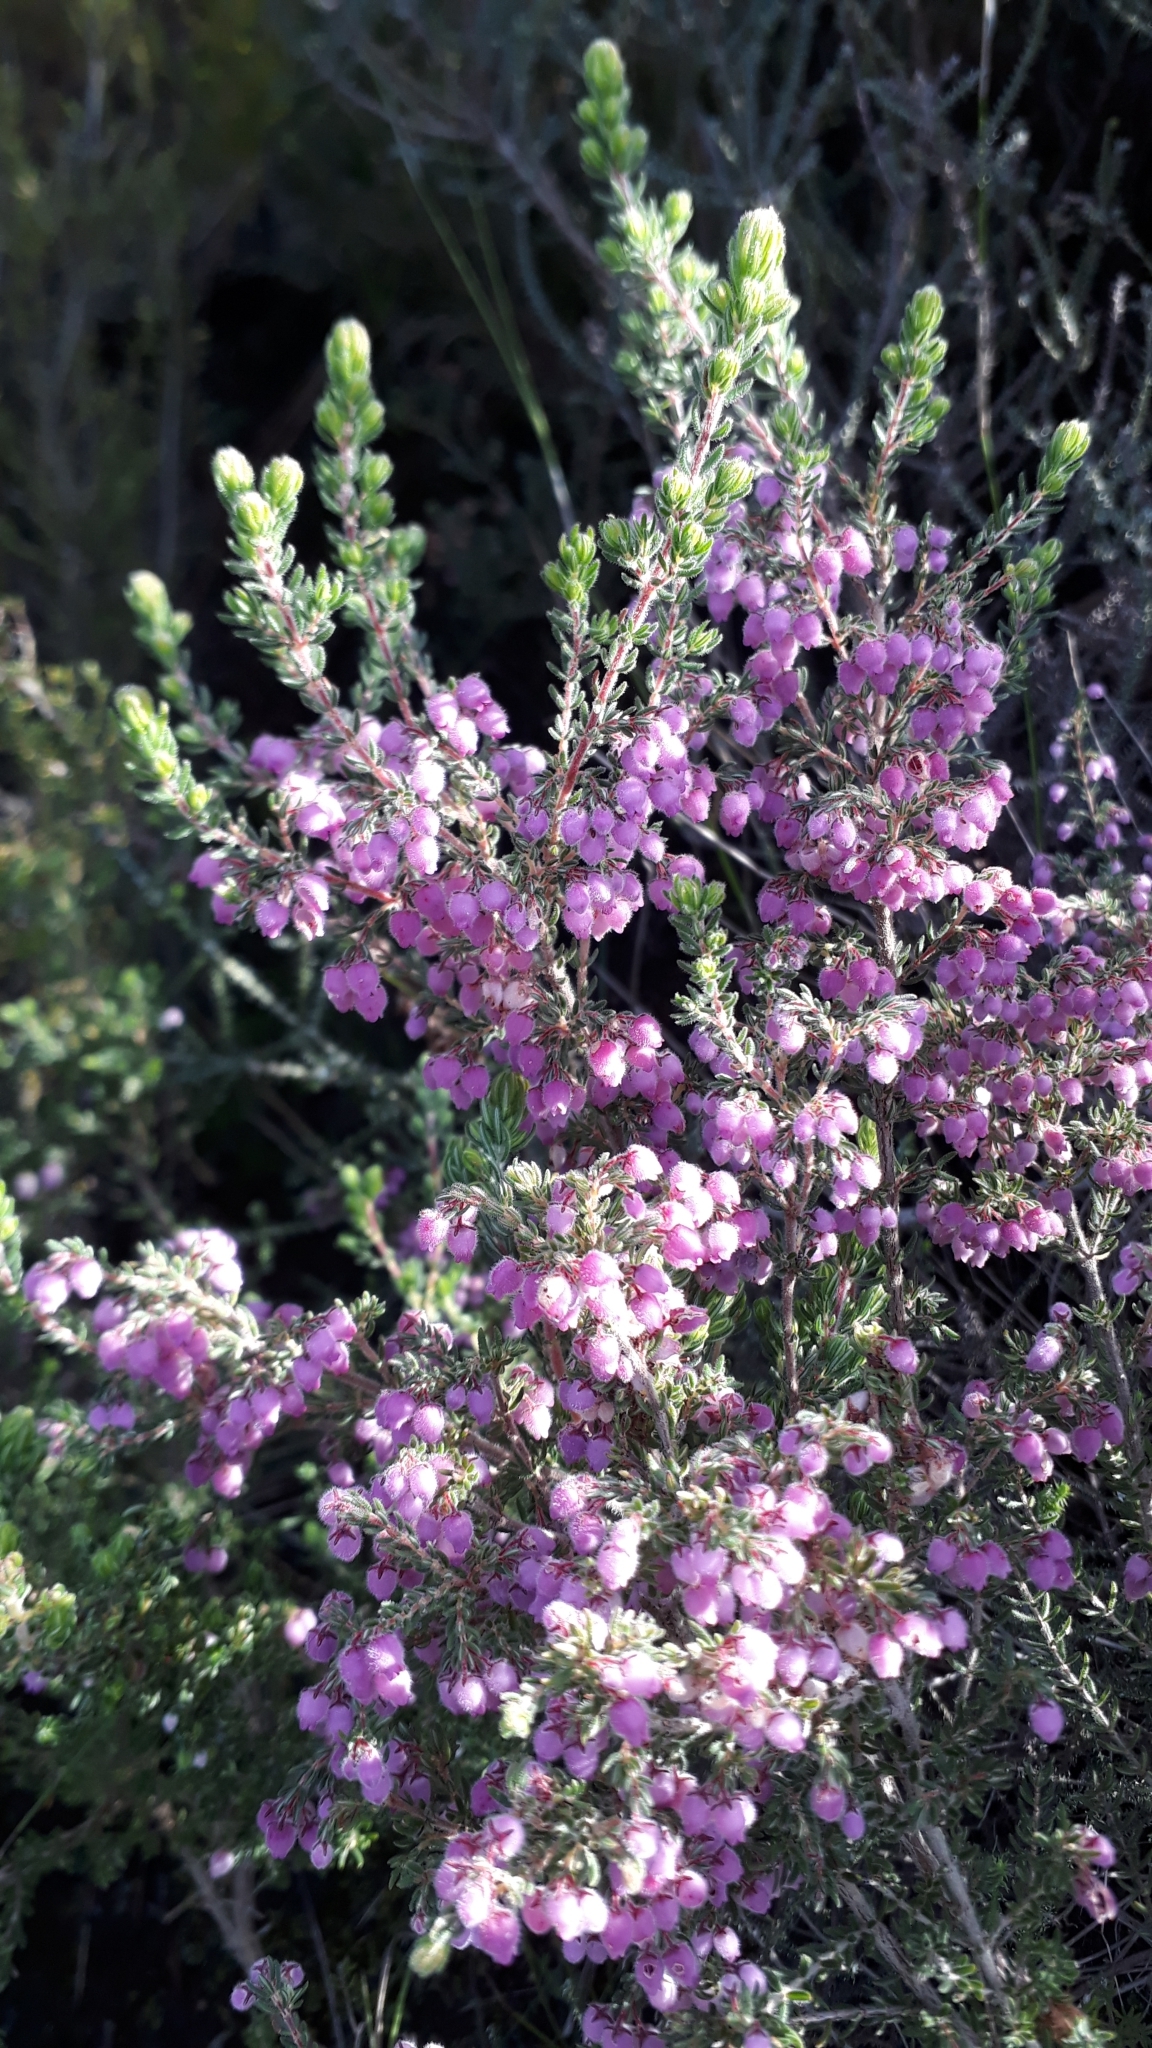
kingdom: Plantae
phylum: Tracheophyta
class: Magnoliopsida
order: Ericales
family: Ericaceae
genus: Erica
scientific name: Erica hirtiflora
